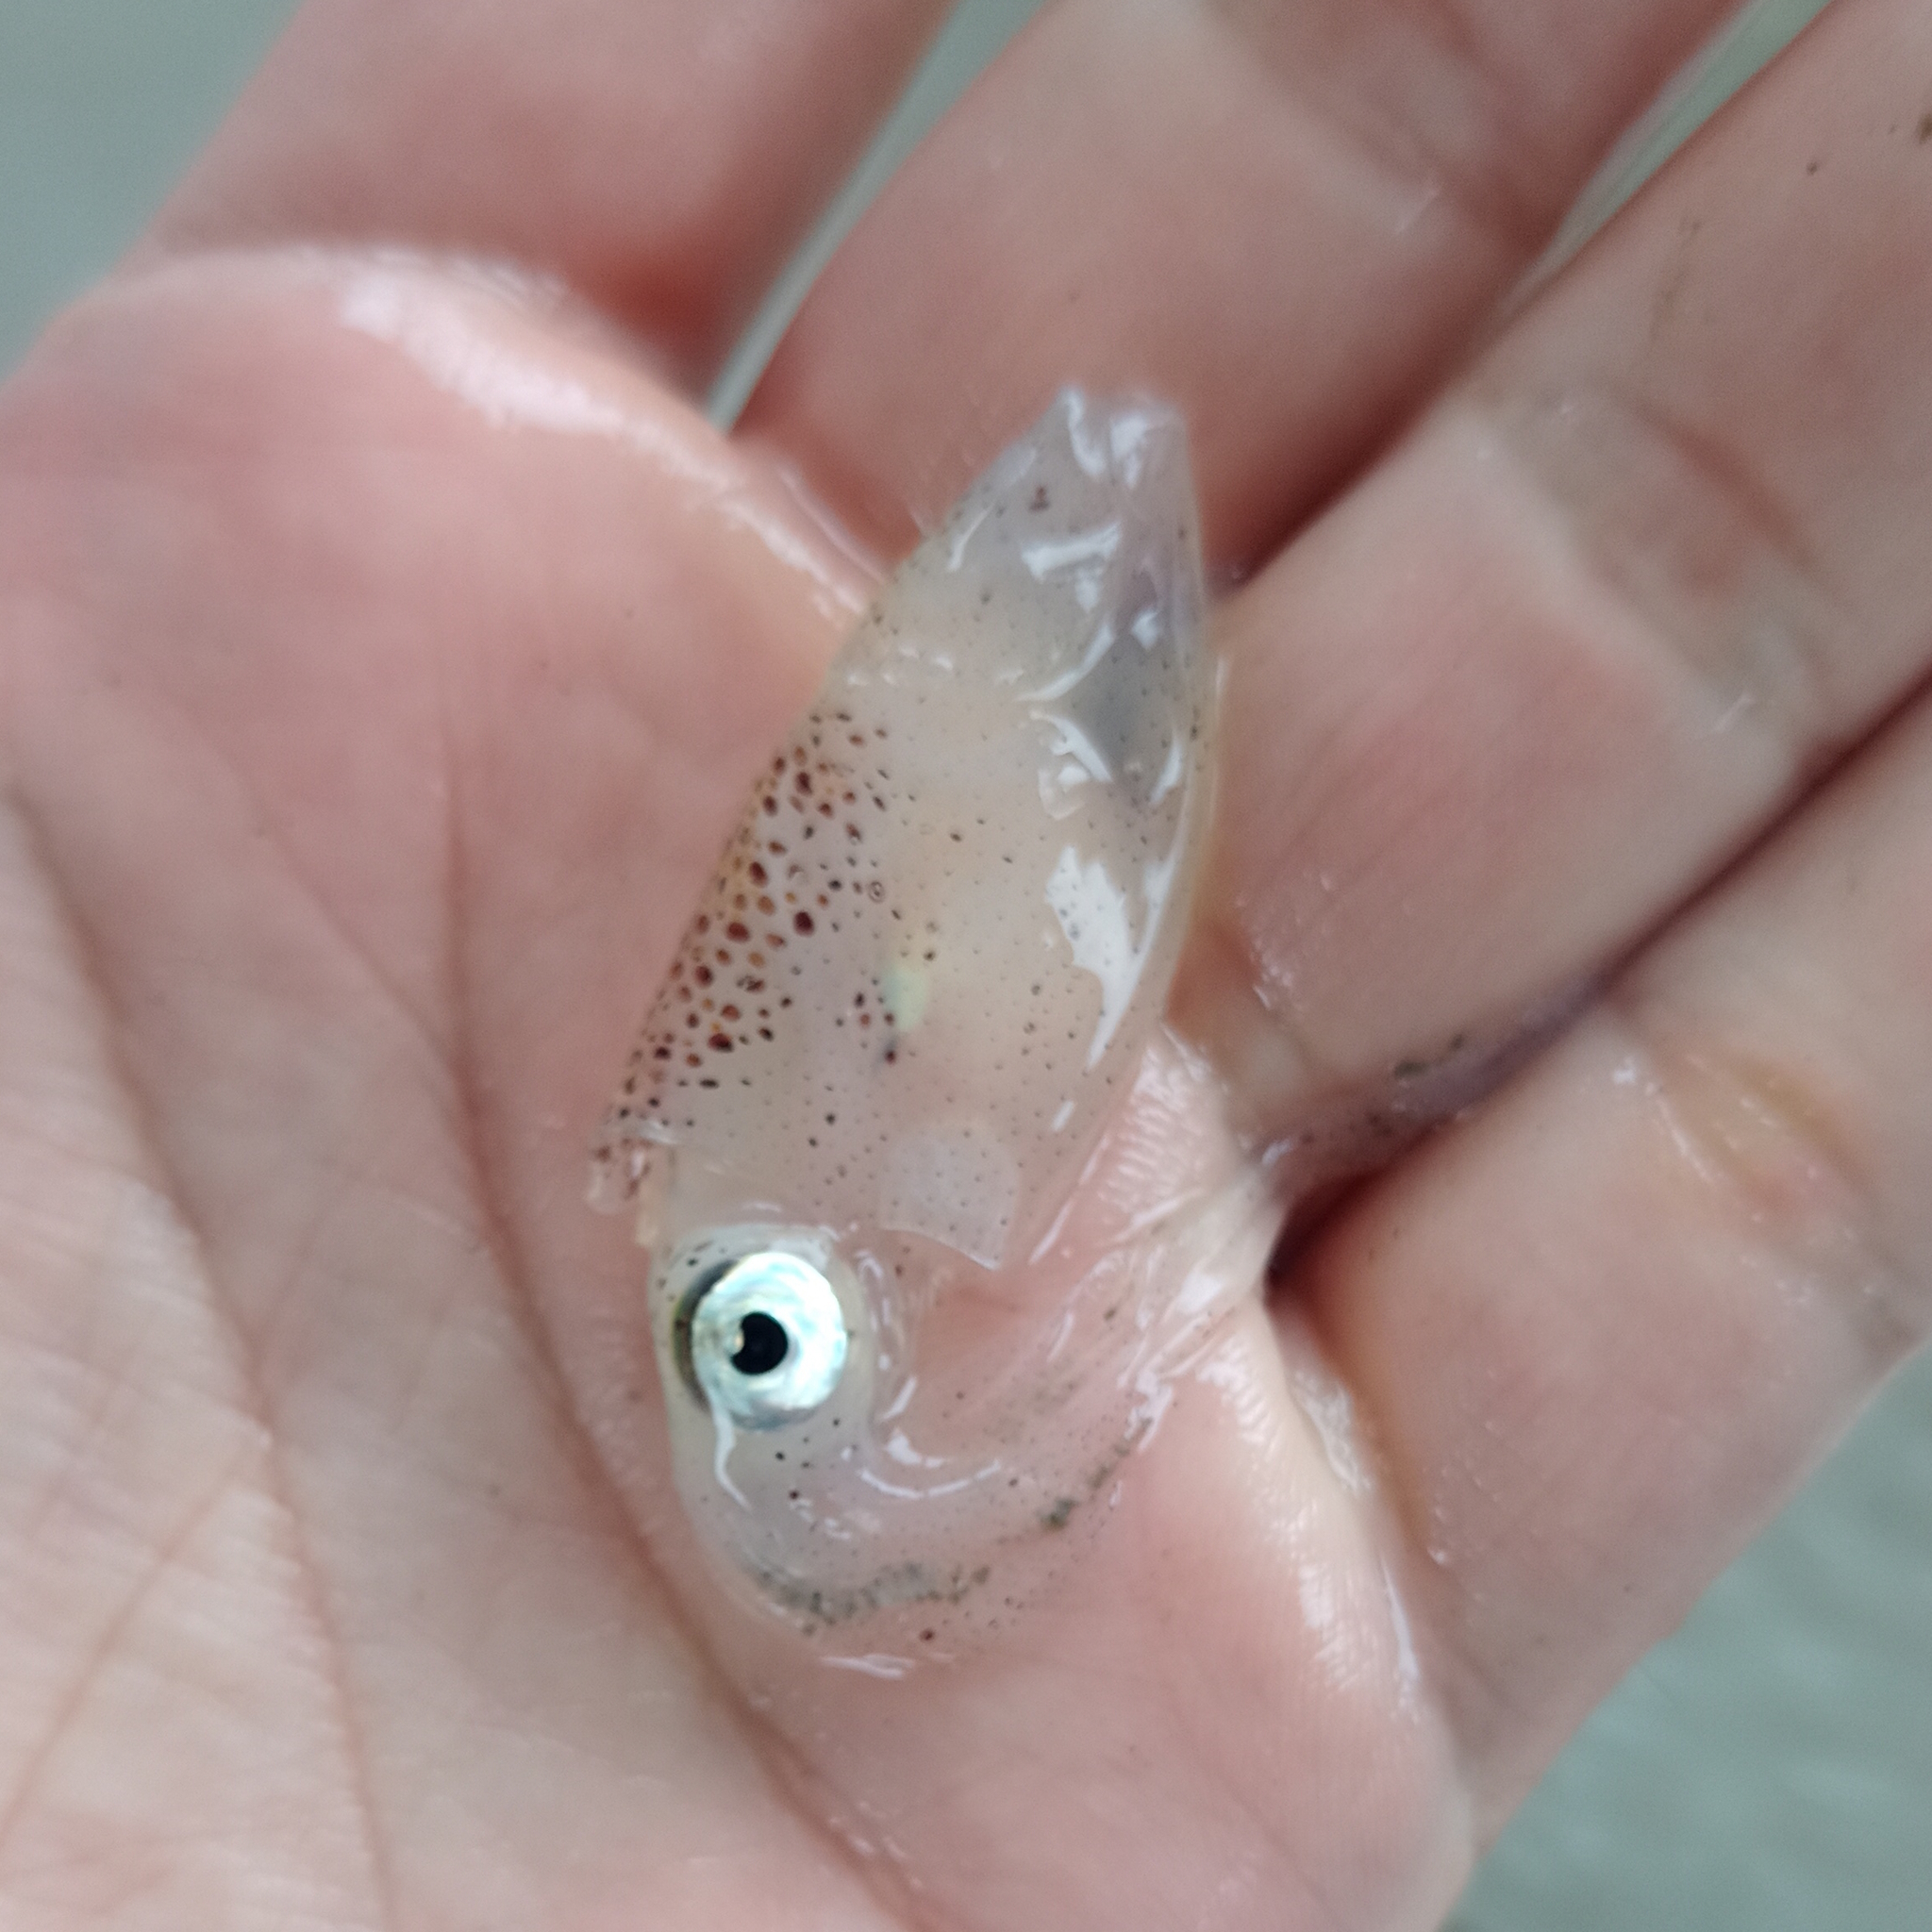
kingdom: Animalia
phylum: Mollusca
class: Cephalopoda
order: Myopsida
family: Loliginidae
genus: Lolliguncula
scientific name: Lolliguncula brevis
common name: Brief squid
